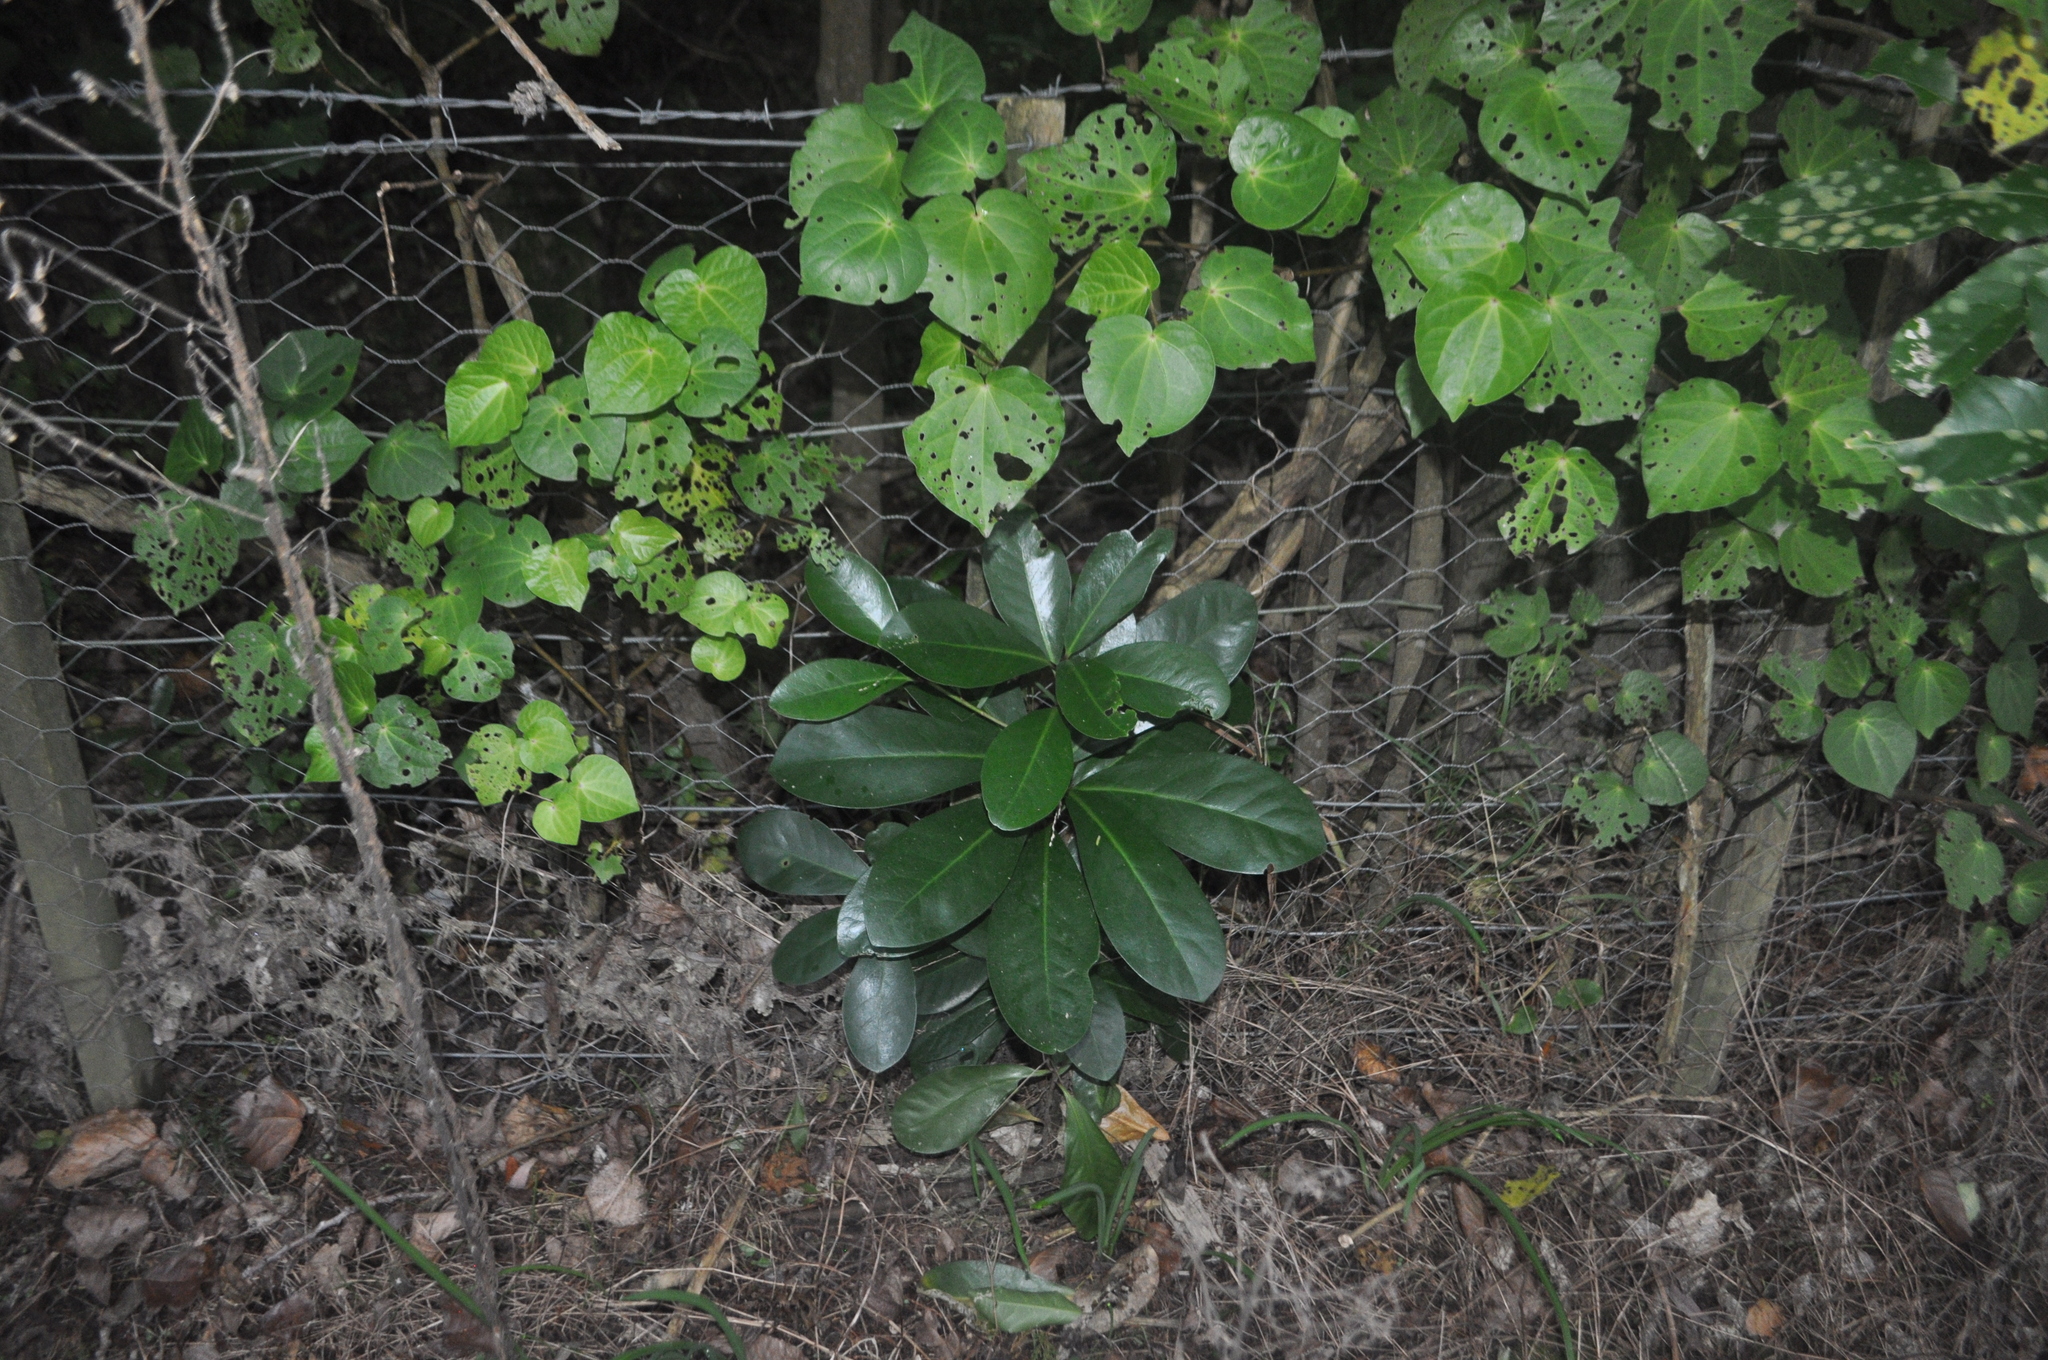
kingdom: Plantae
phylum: Tracheophyta
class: Magnoliopsida
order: Cucurbitales
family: Corynocarpaceae
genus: Corynocarpus
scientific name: Corynocarpus laevigatus
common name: New zealand laurel
